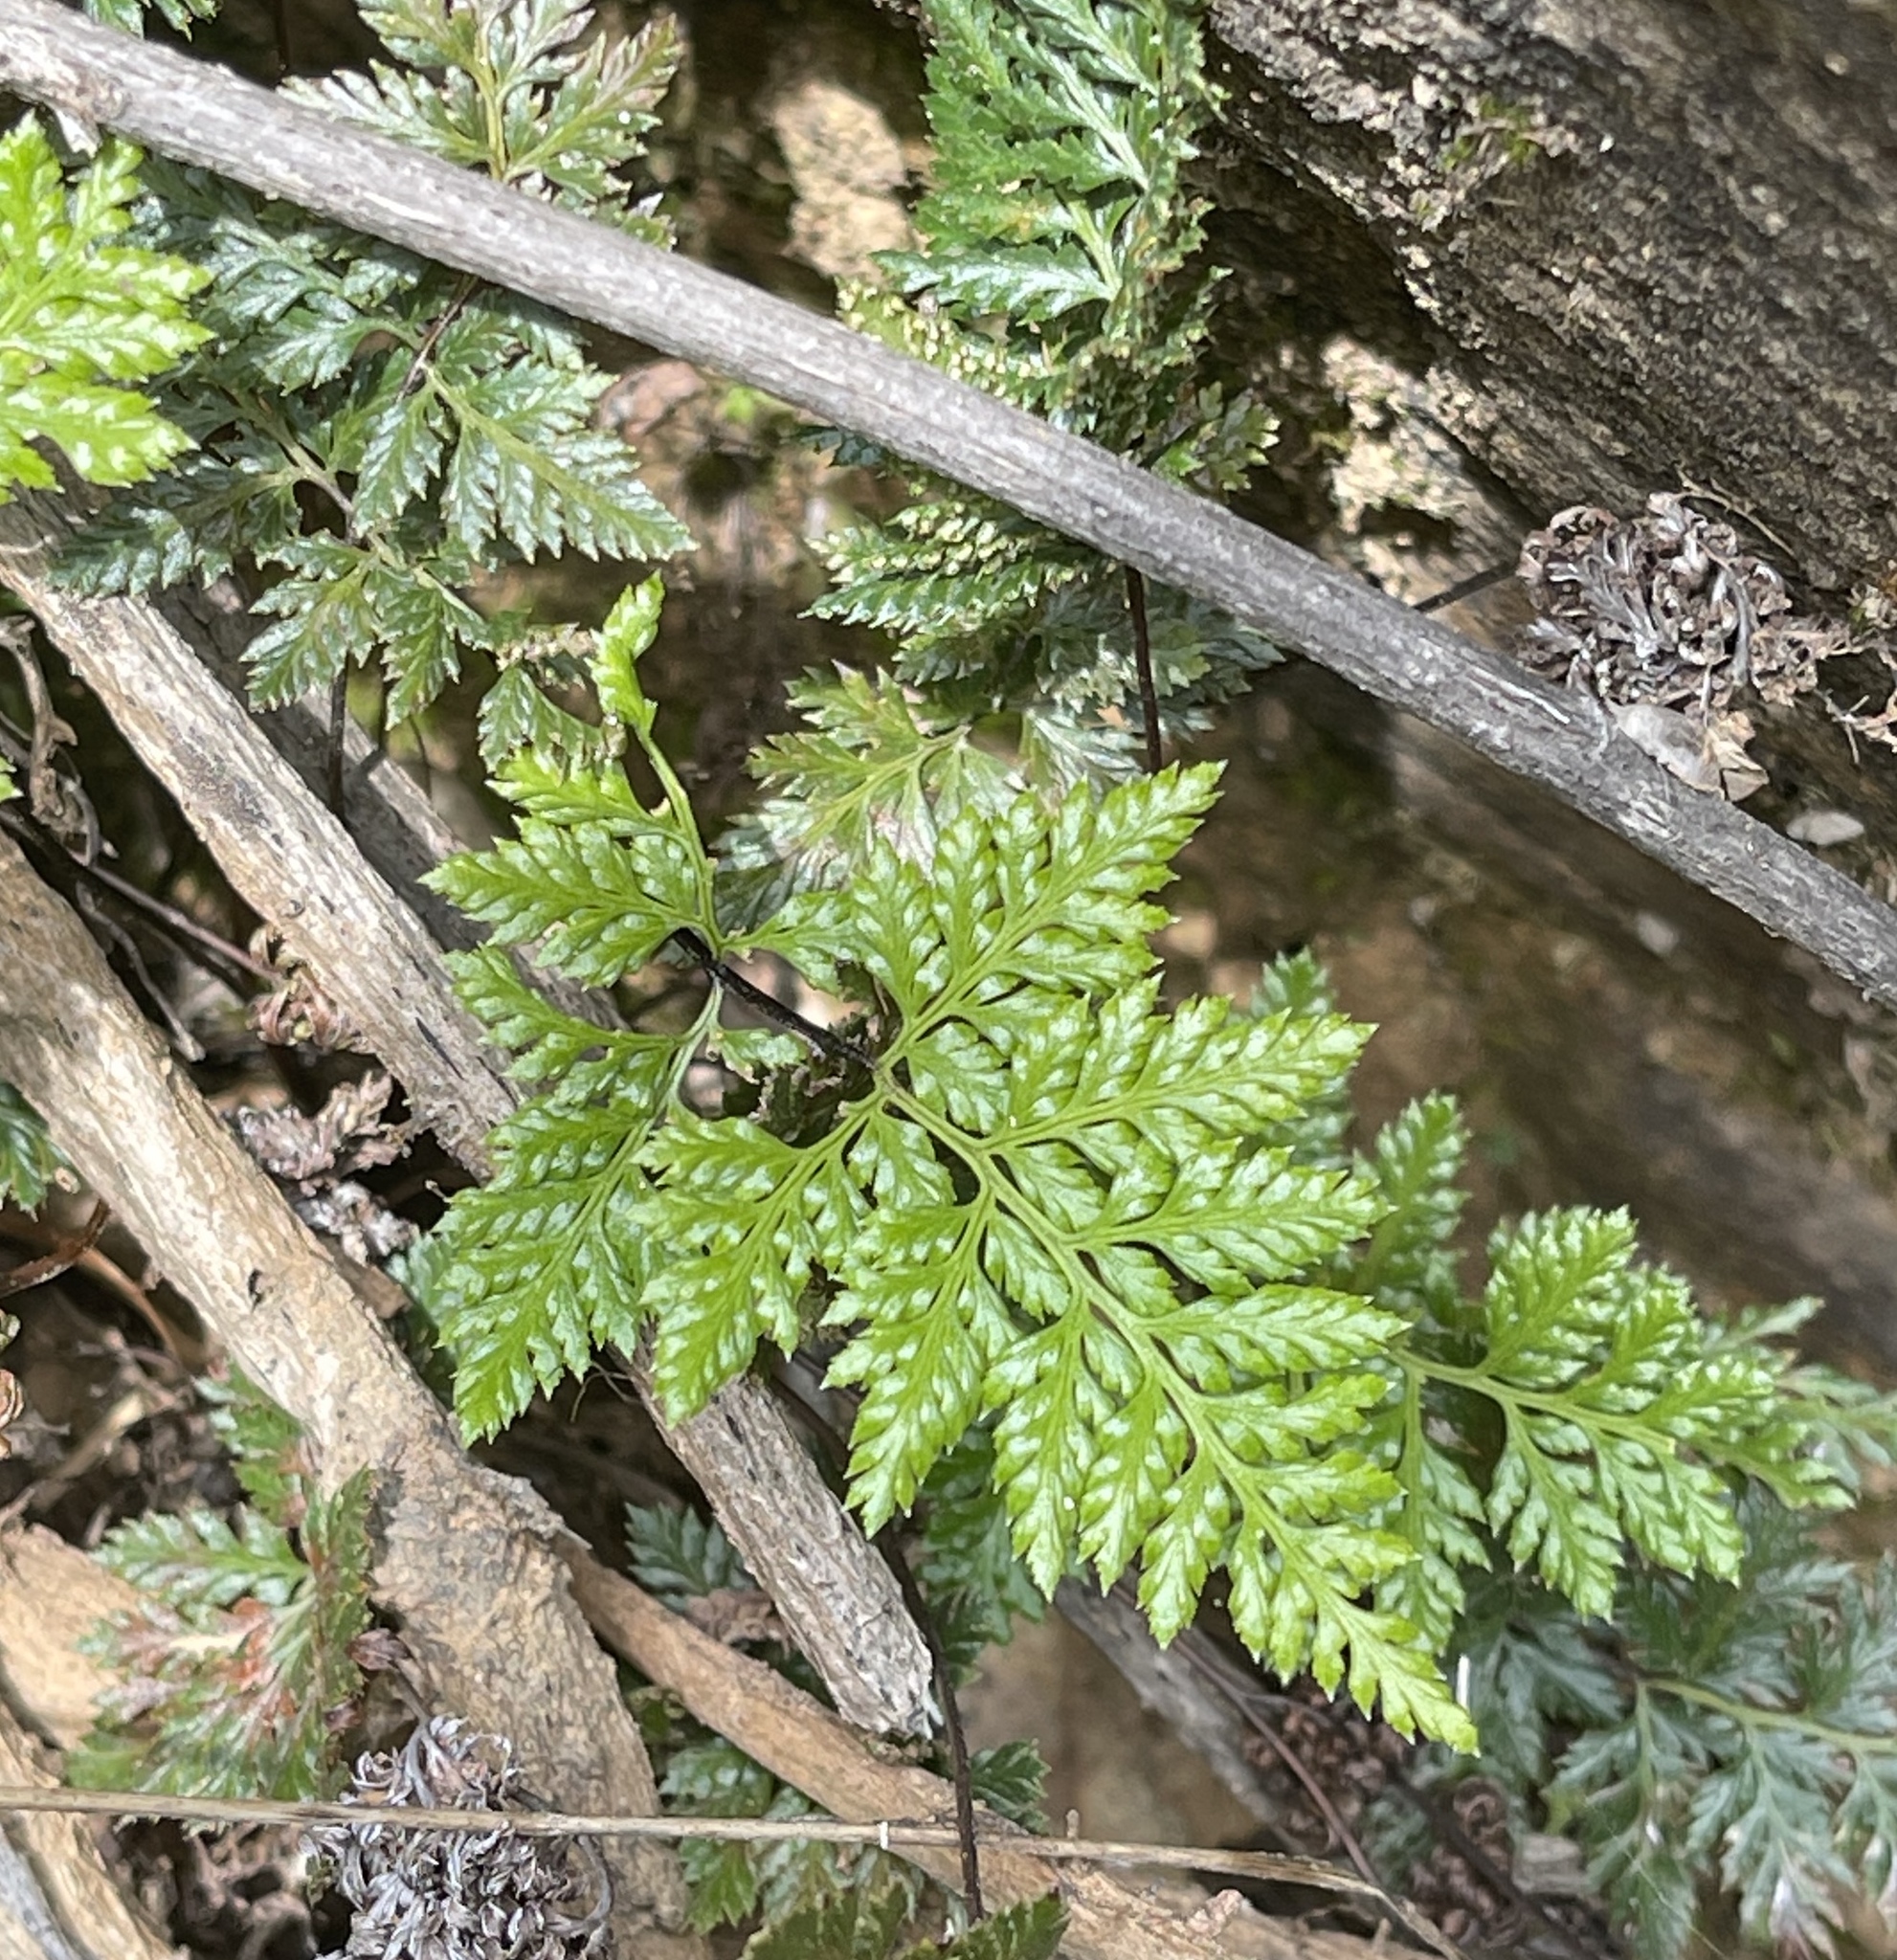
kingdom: Plantae
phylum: Tracheophyta
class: Polypodiopsida
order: Polypodiales
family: Pteridaceae
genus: Aspidotis
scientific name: Aspidotis californica
